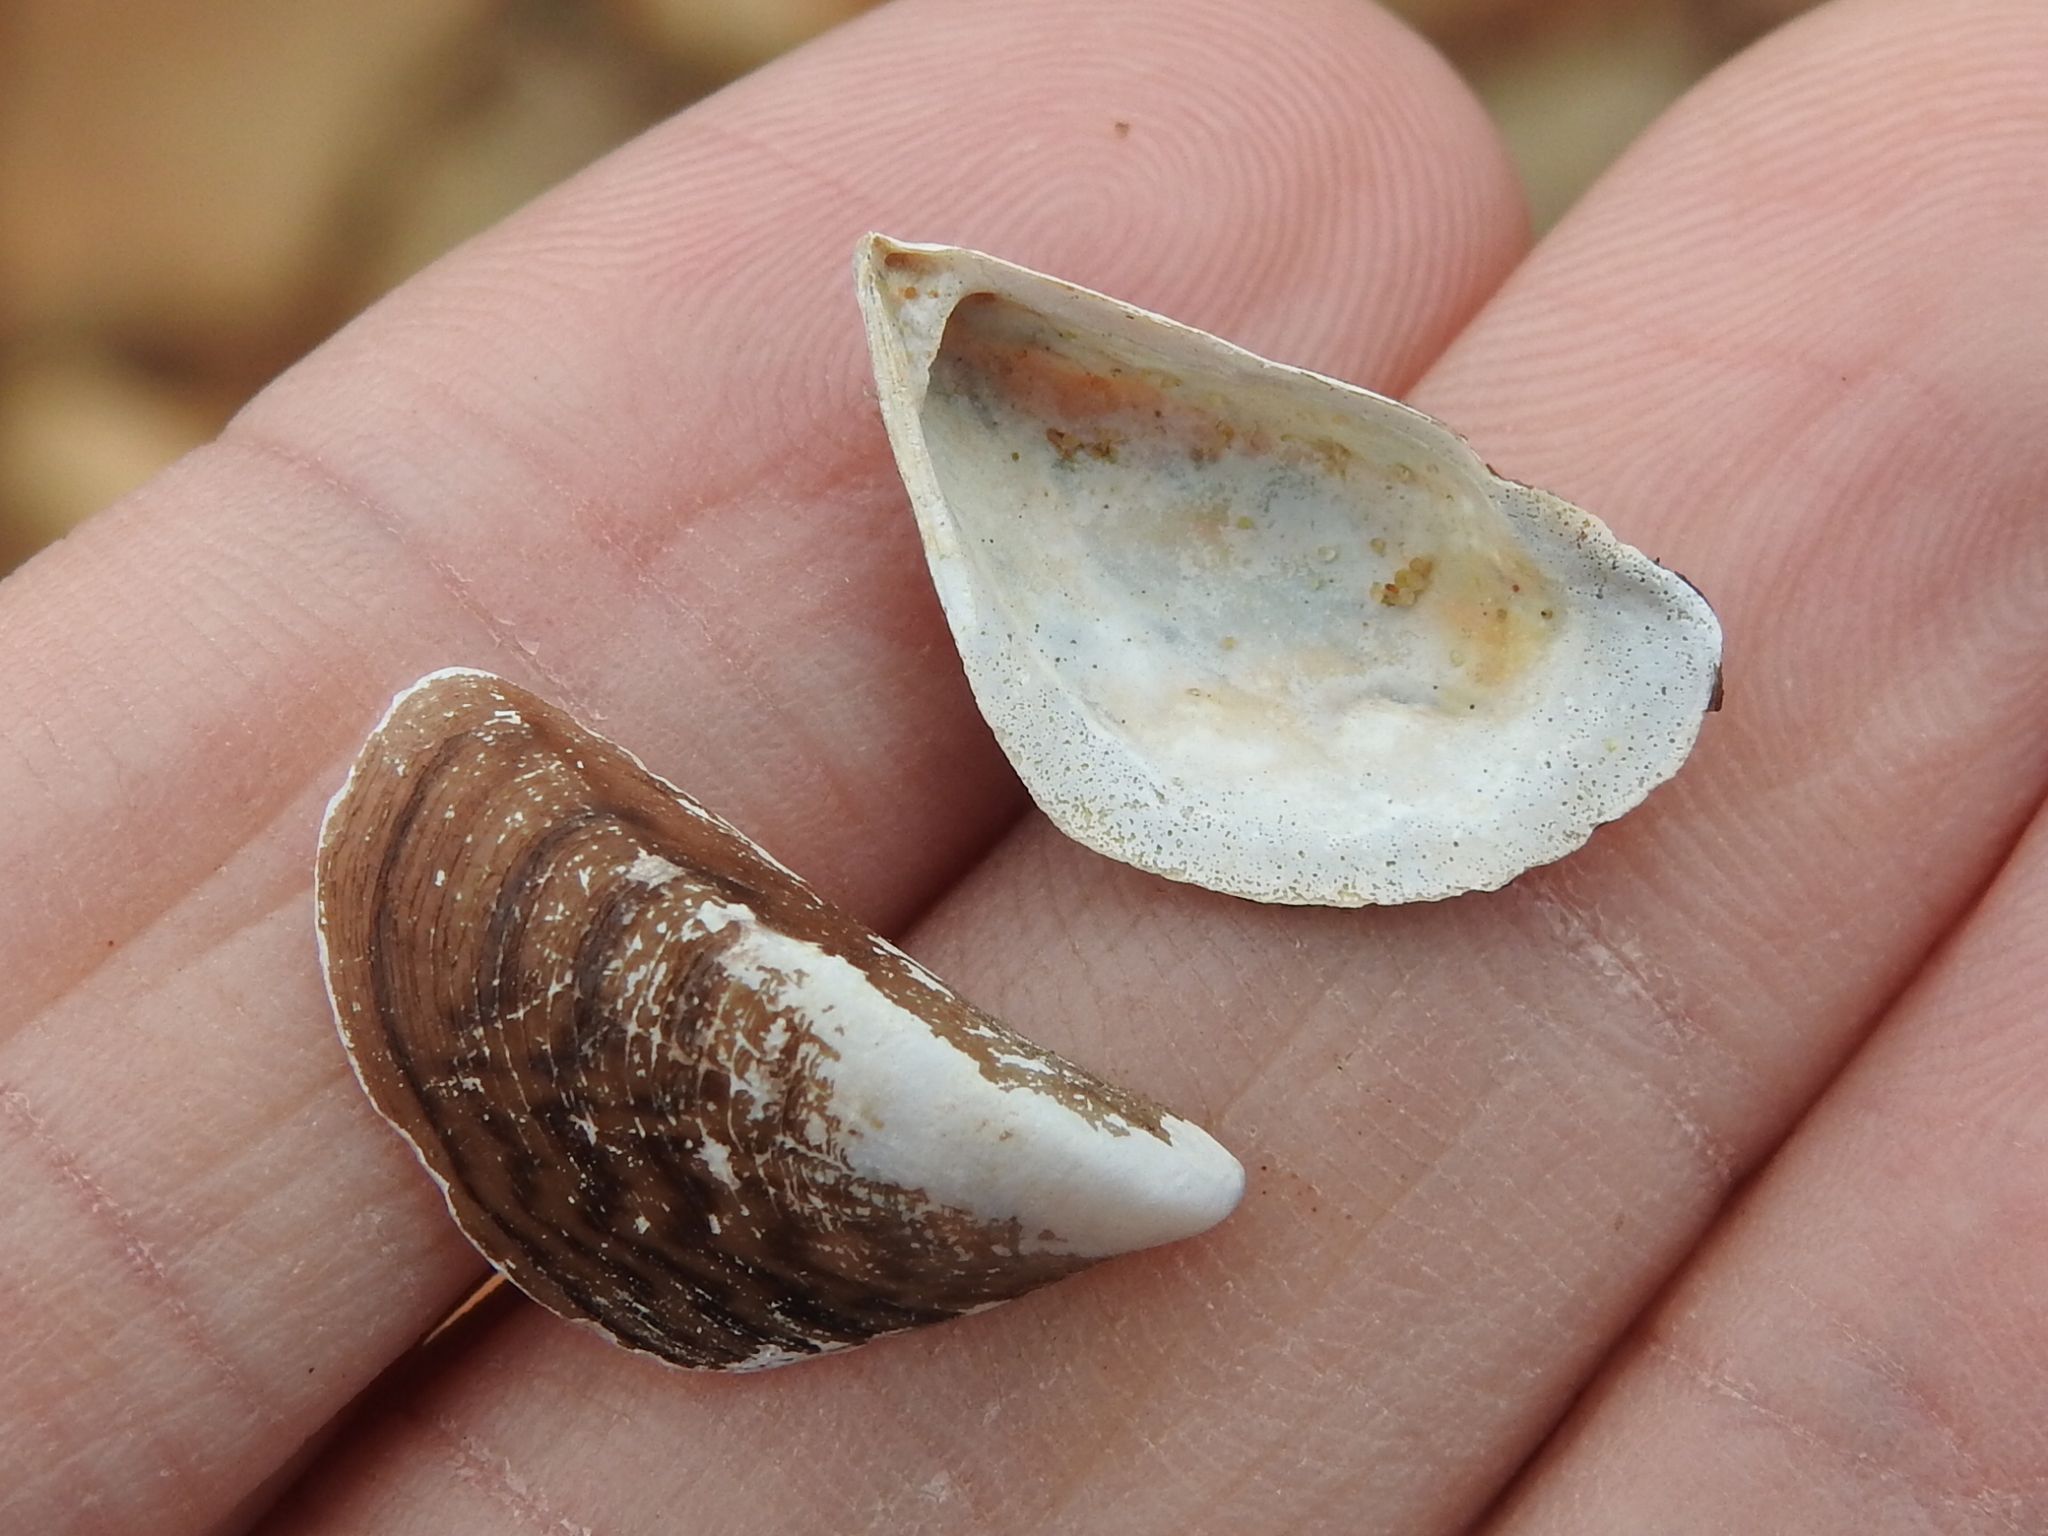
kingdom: Animalia
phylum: Mollusca
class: Bivalvia
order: Myida
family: Dreissenidae
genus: Dreissena
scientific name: Dreissena polymorpha
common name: Zebra mussel
